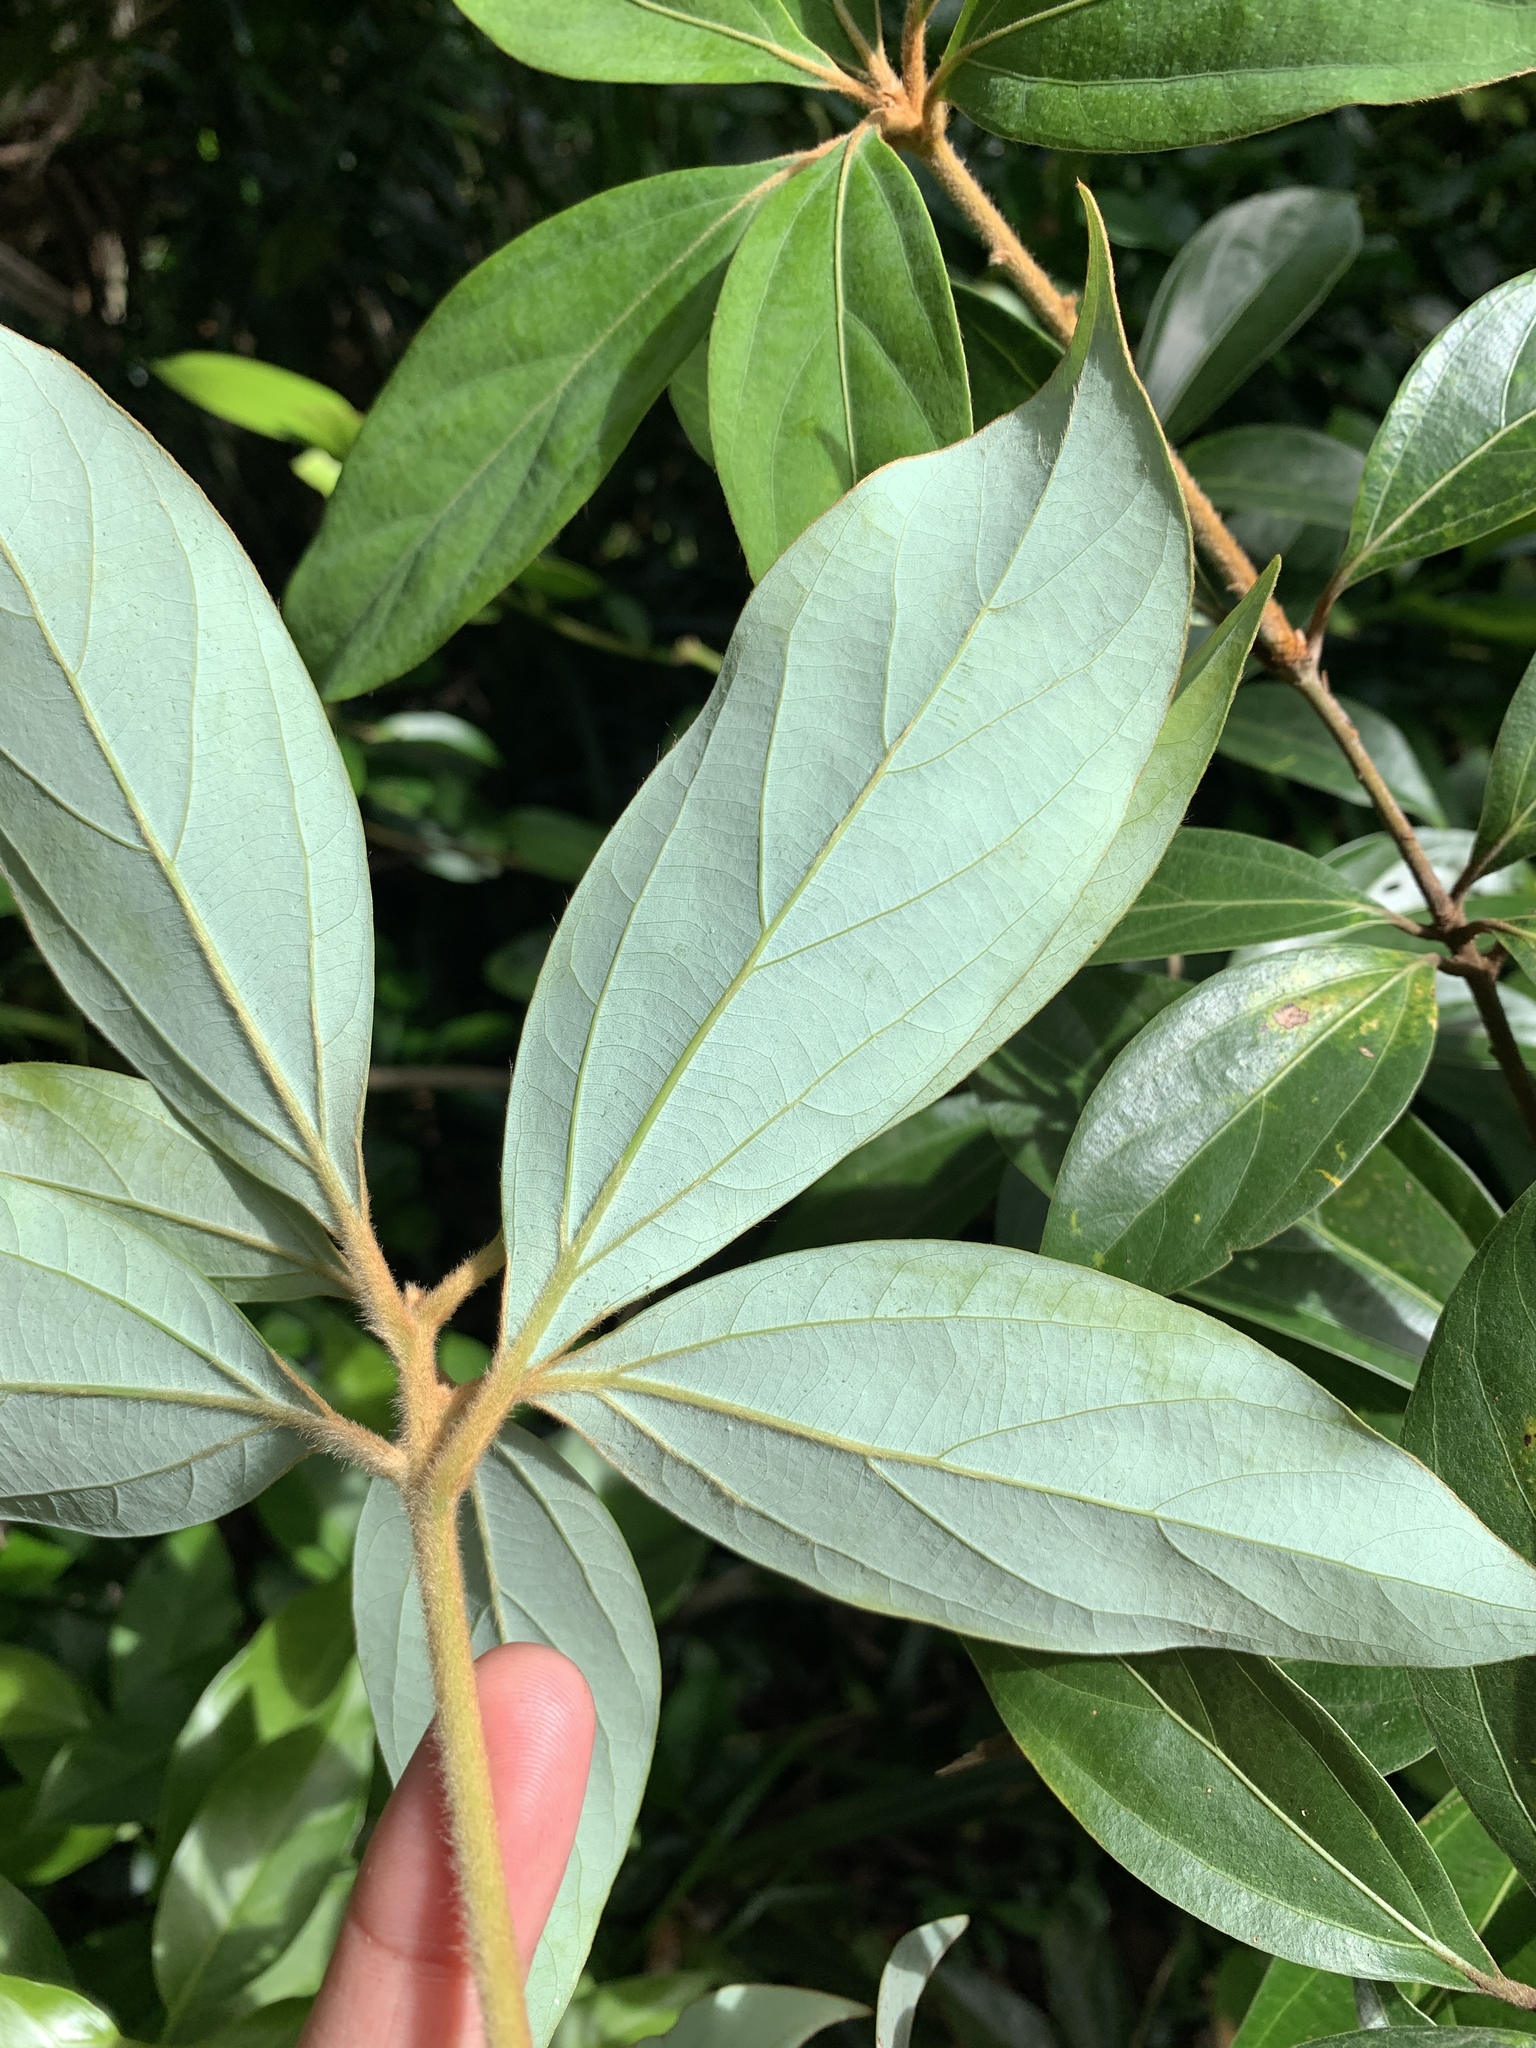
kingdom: Plantae
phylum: Tracheophyta
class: Magnoliopsida
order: Laurales
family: Lauraceae
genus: Neolitsea
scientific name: Neolitsea villosa
